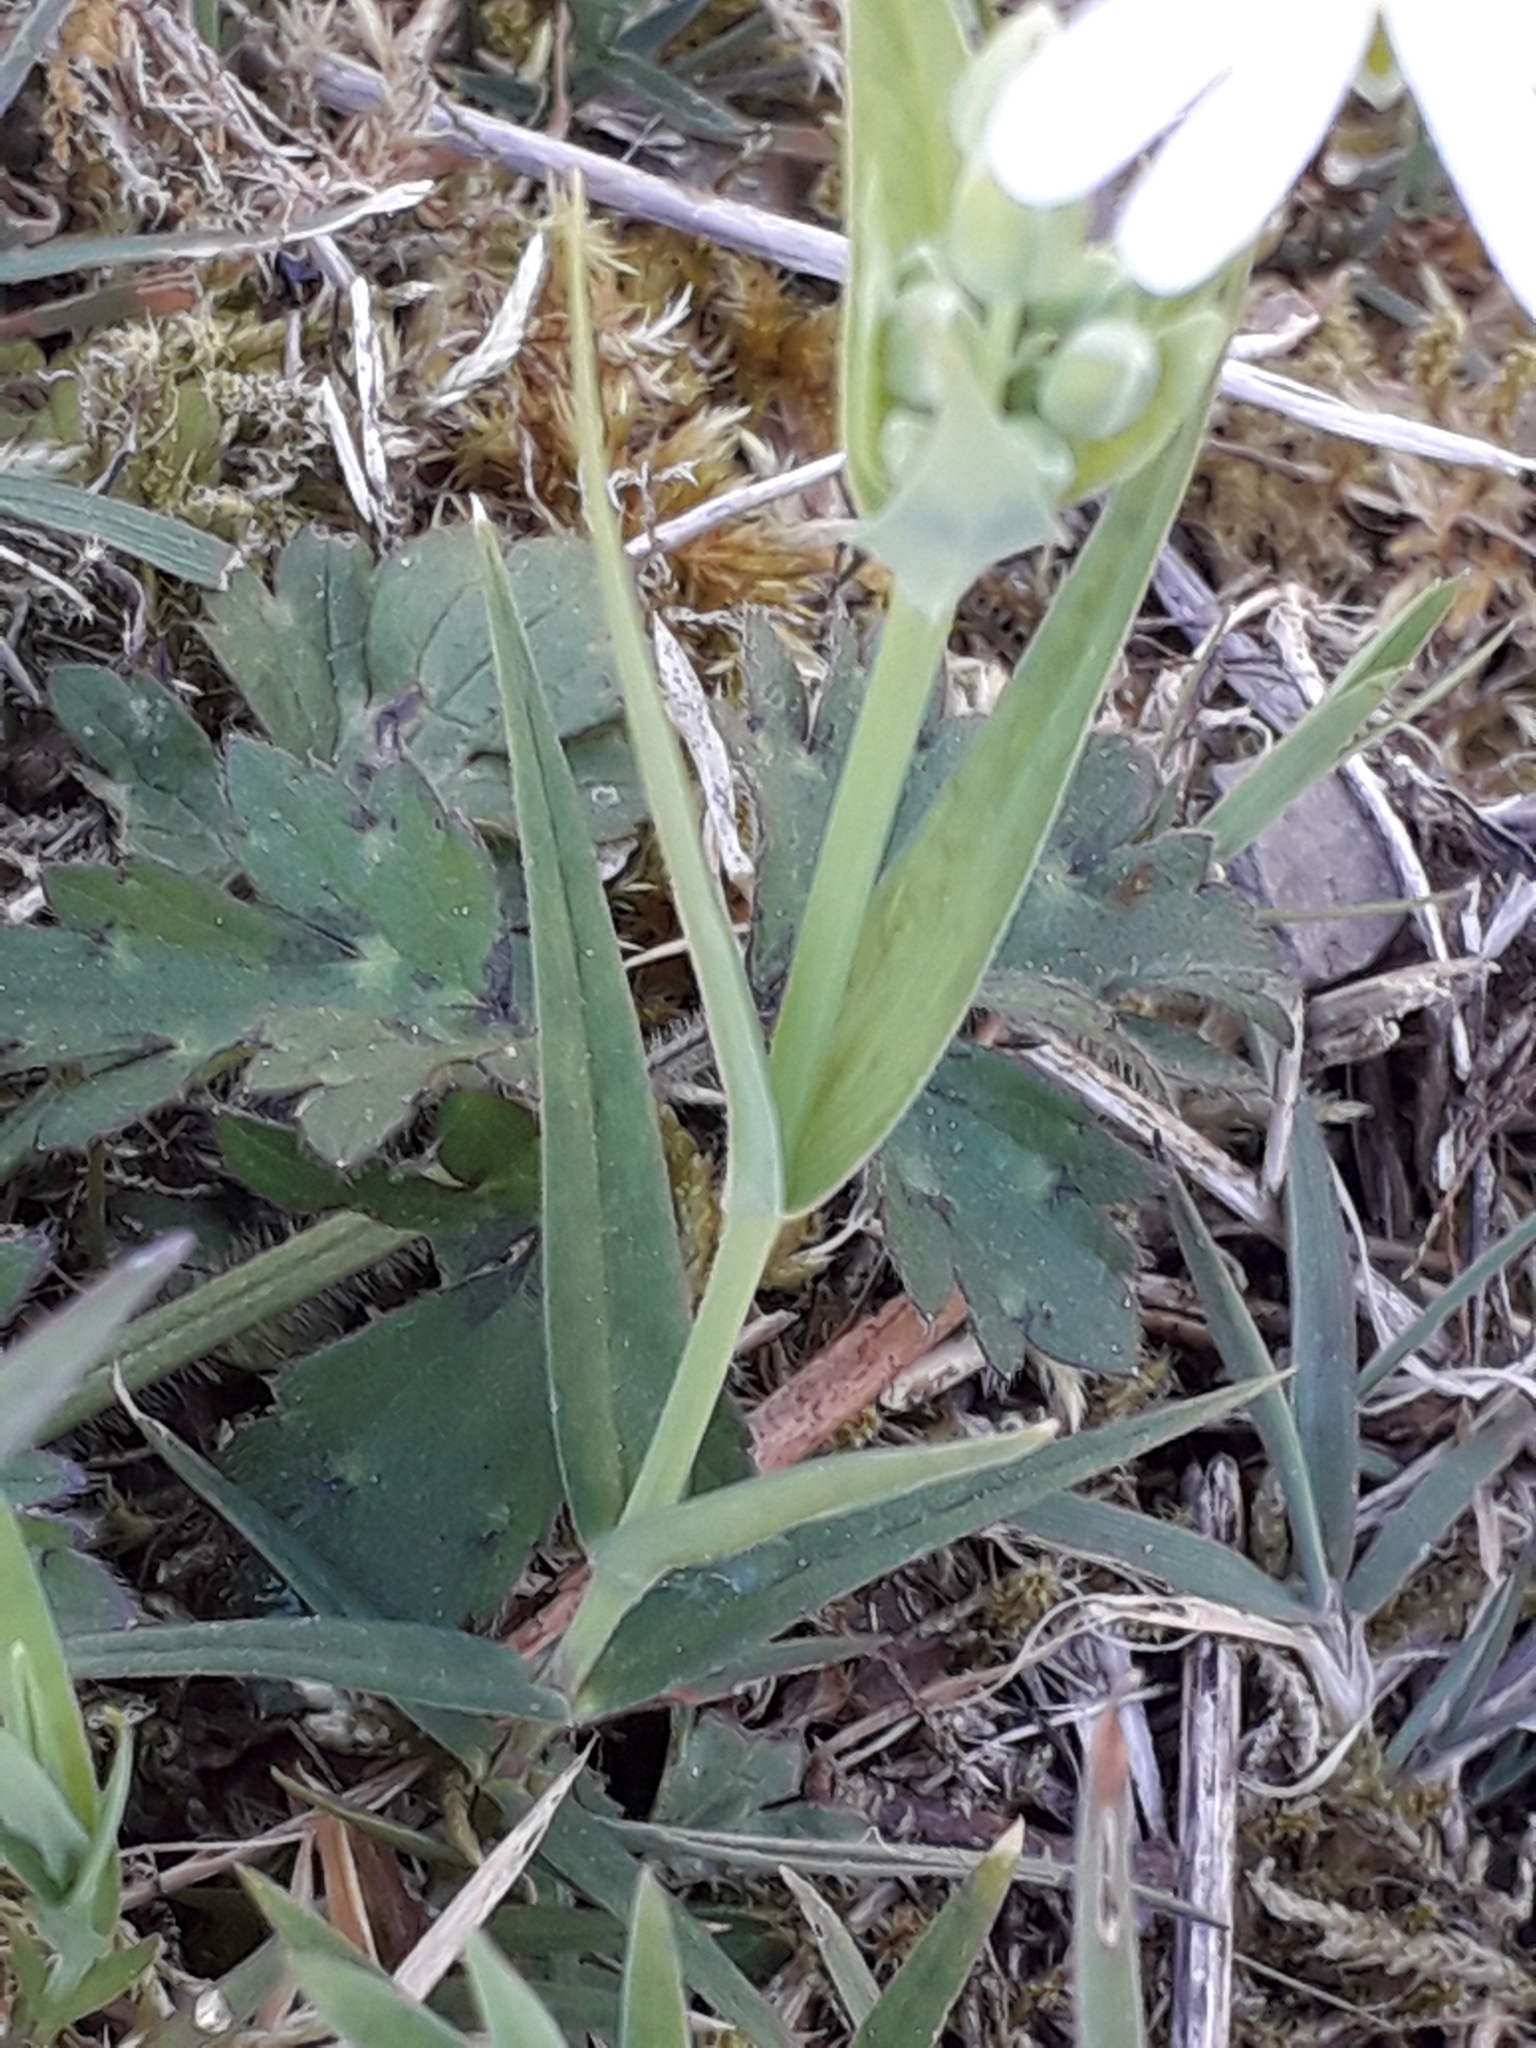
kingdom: Plantae
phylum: Tracheophyta
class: Magnoliopsida
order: Caryophyllales
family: Caryophyllaceae
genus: Rabelera
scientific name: Rabelera holostea
